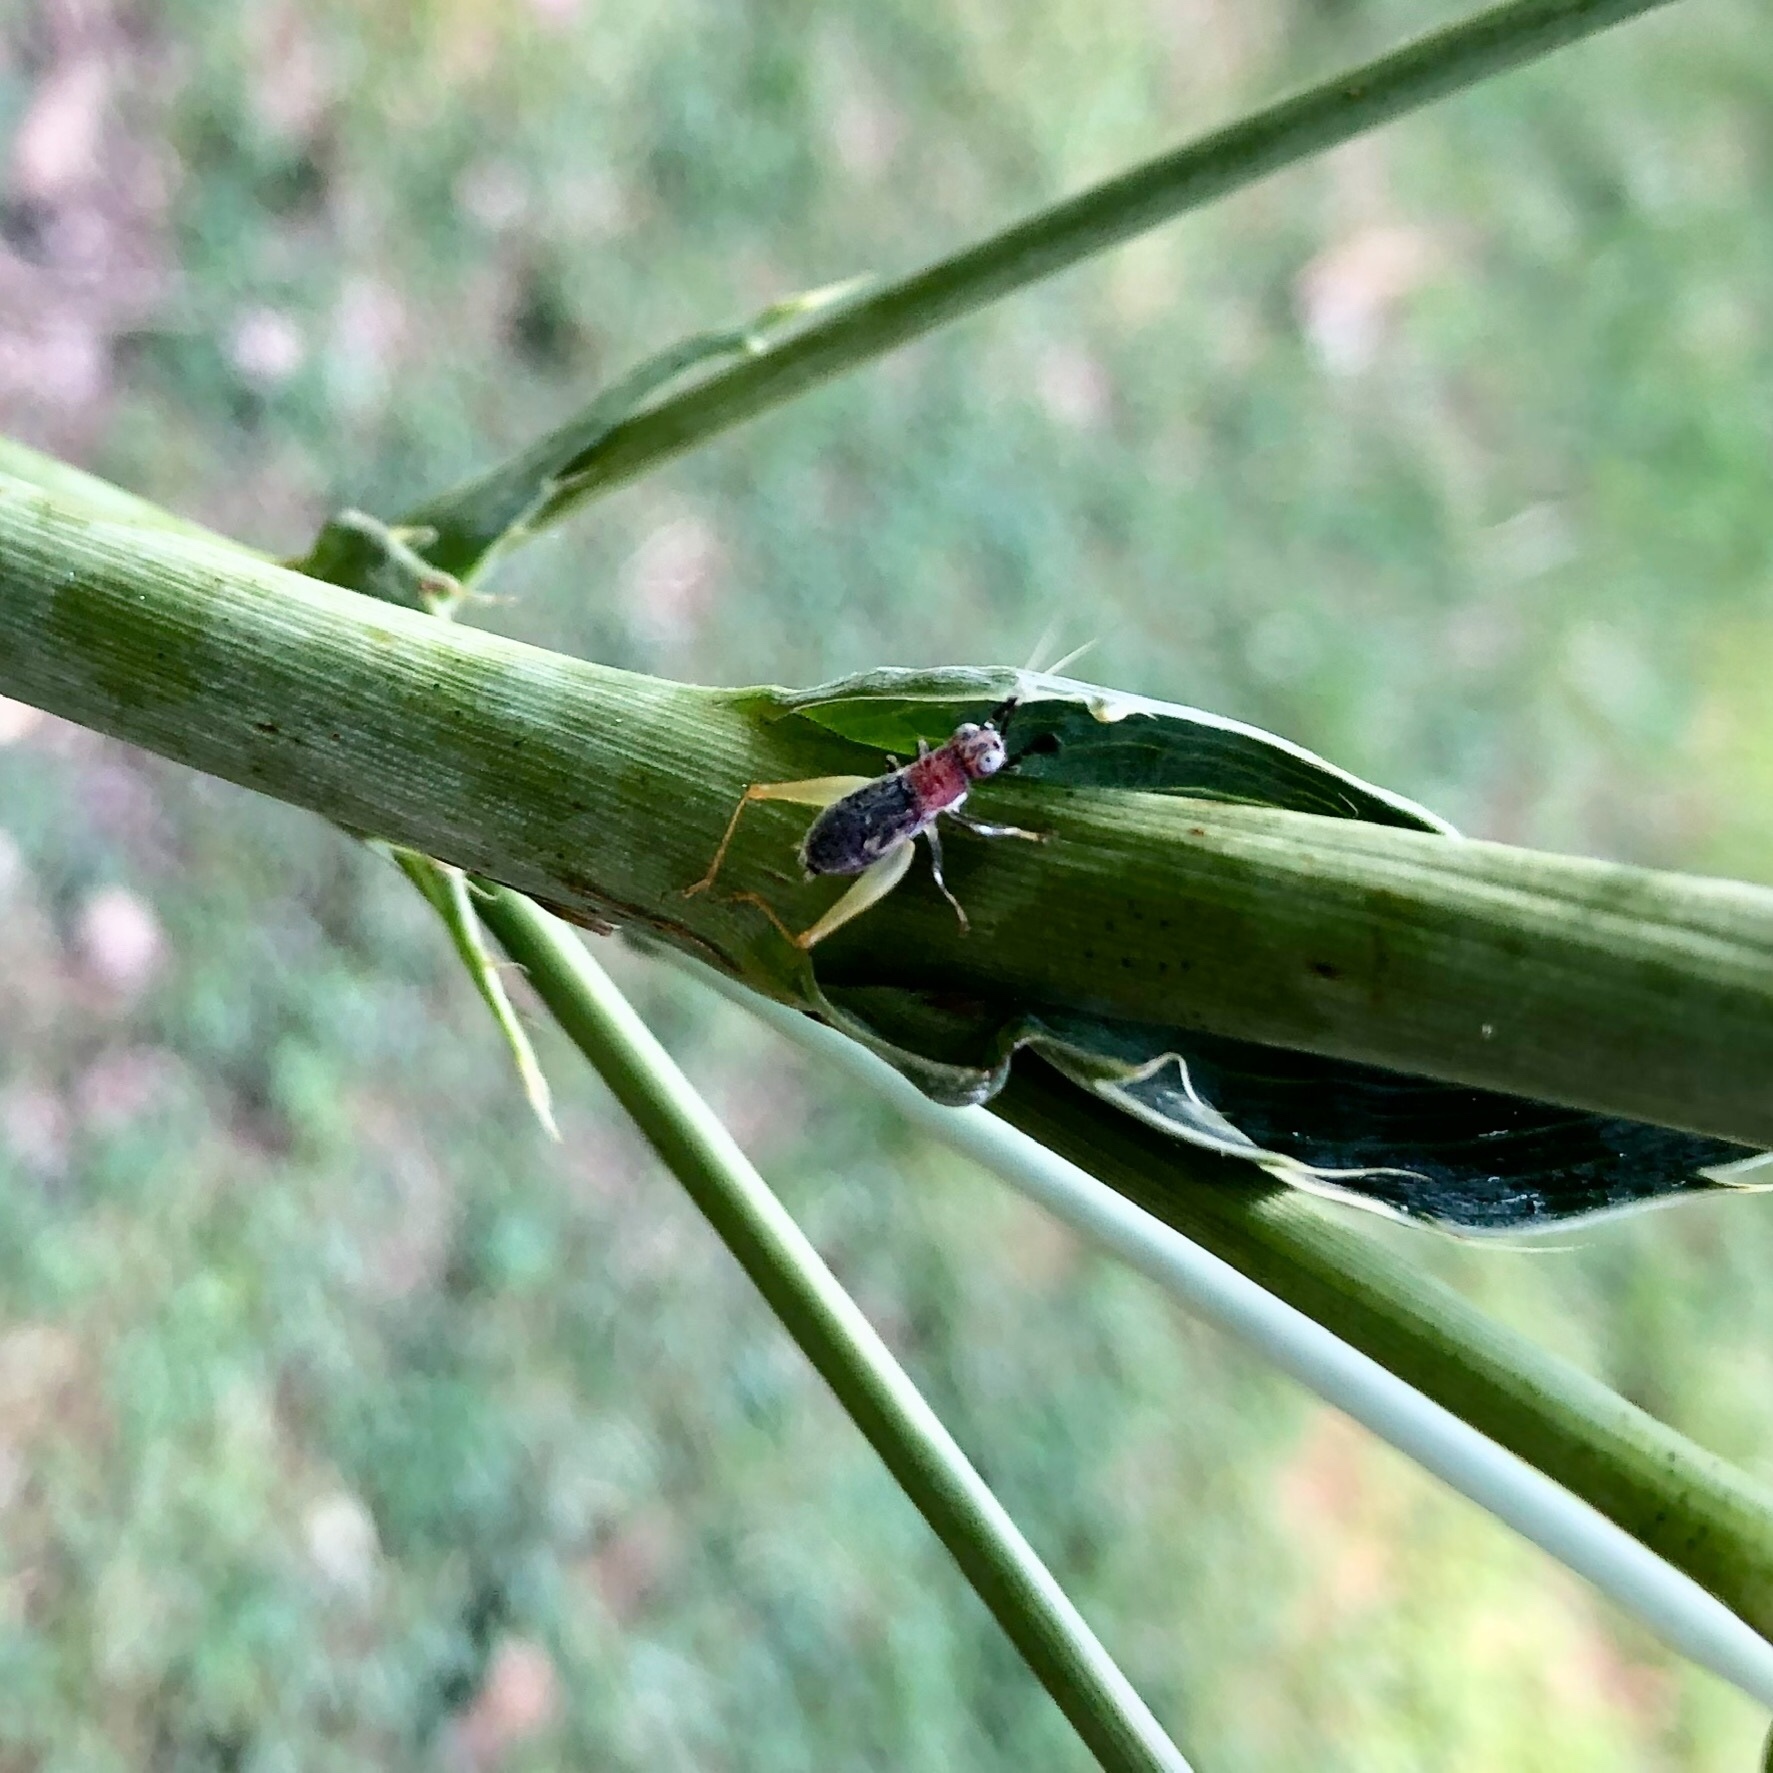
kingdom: Animalia
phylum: Arthropoda
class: Insecta
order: Orthoptera
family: Trigonidiidae
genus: Phyllopalpus
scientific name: Phyllopalpus pulchellus
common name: Handsome trig
